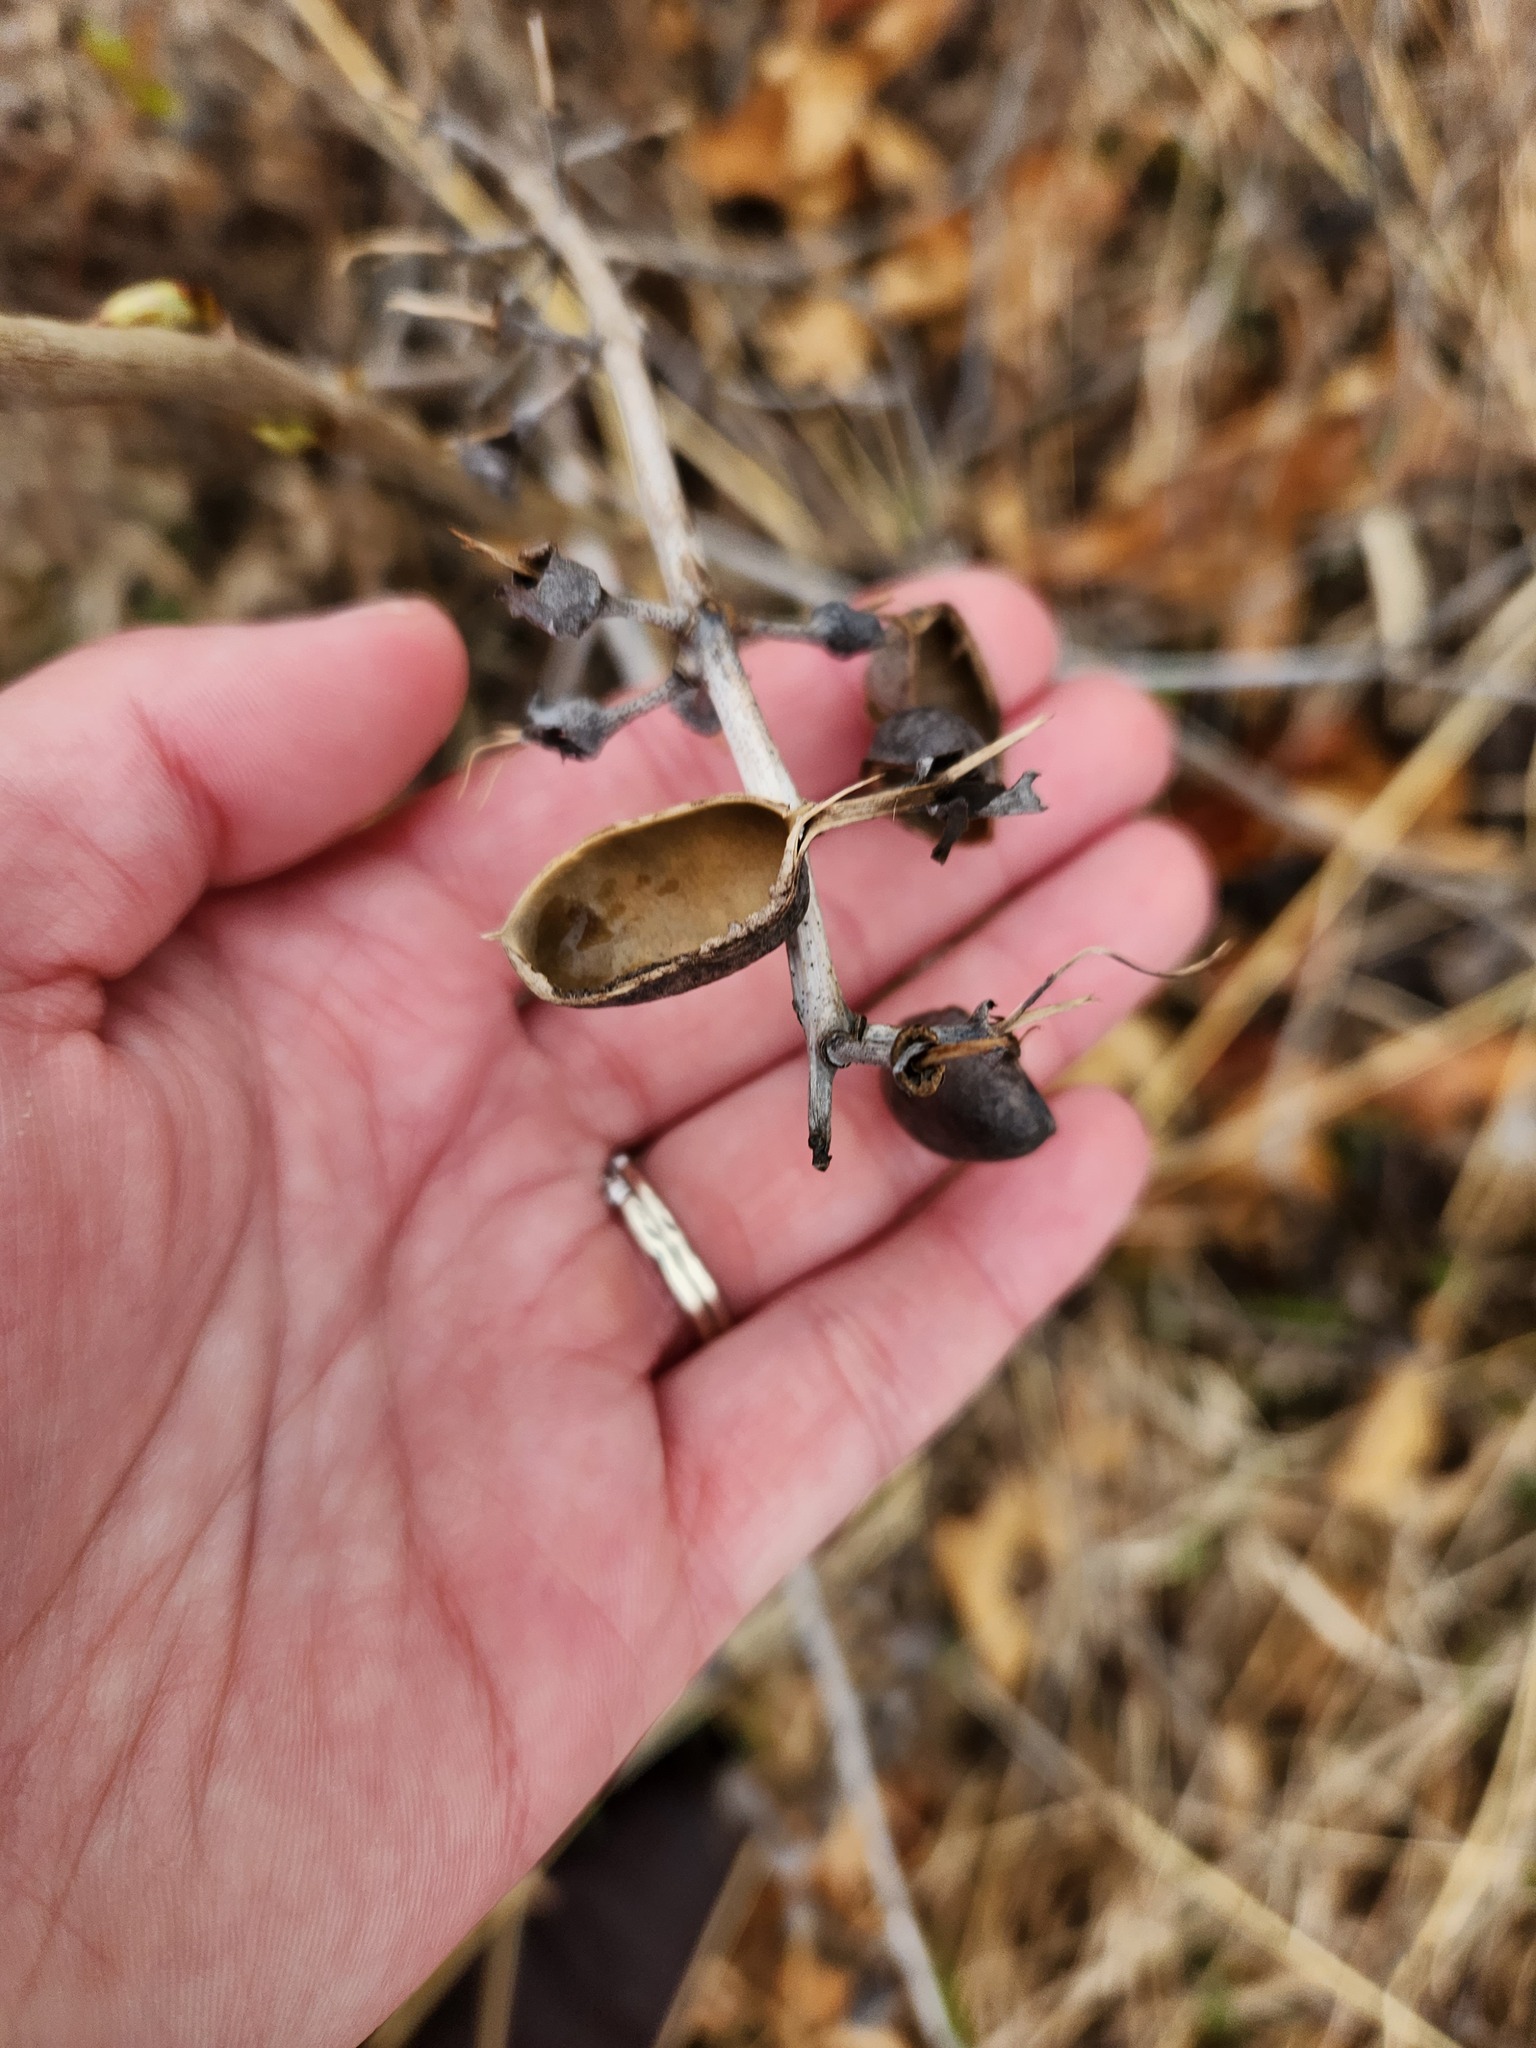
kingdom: Plantae
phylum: Tracheophyta
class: Magnoliopsida
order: Fabales
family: Fabaceae
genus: Baptisia
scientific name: Baptisia alba
